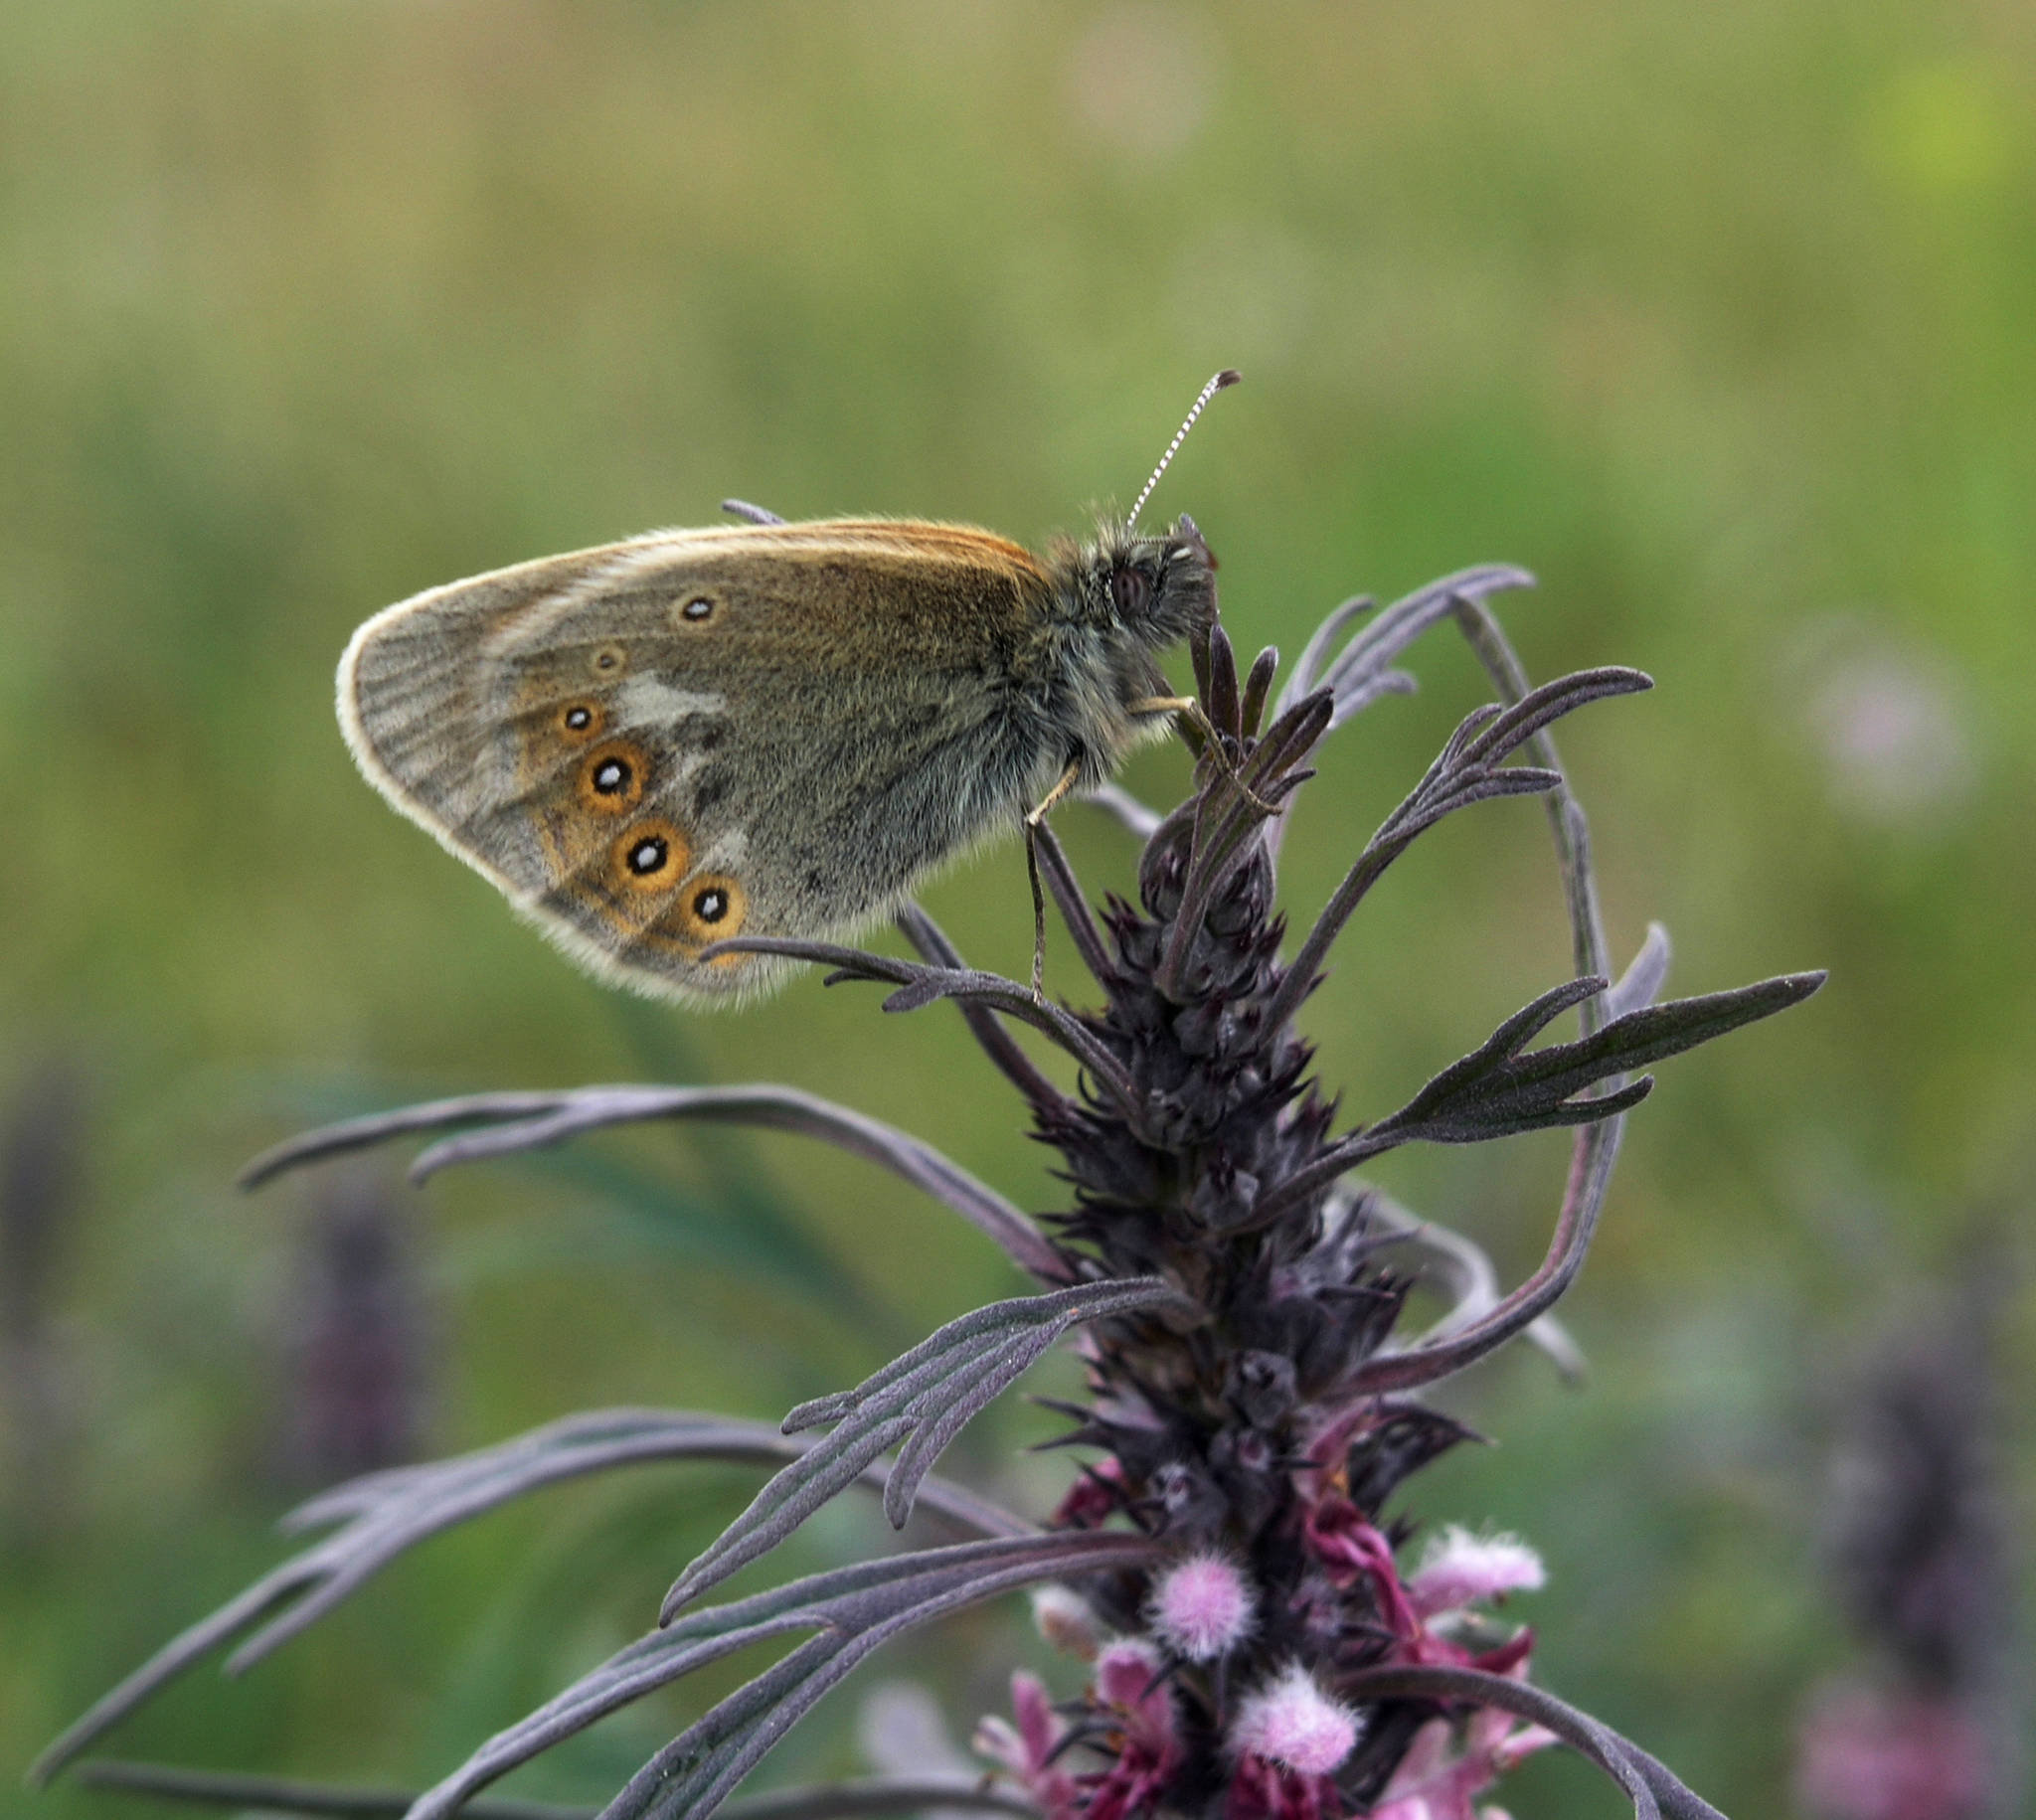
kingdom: Animalia
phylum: Arthropoda
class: Insecta
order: Lepidoptera
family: Nymphalidae
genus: Coenonympha
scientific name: Coenonympha iphis
